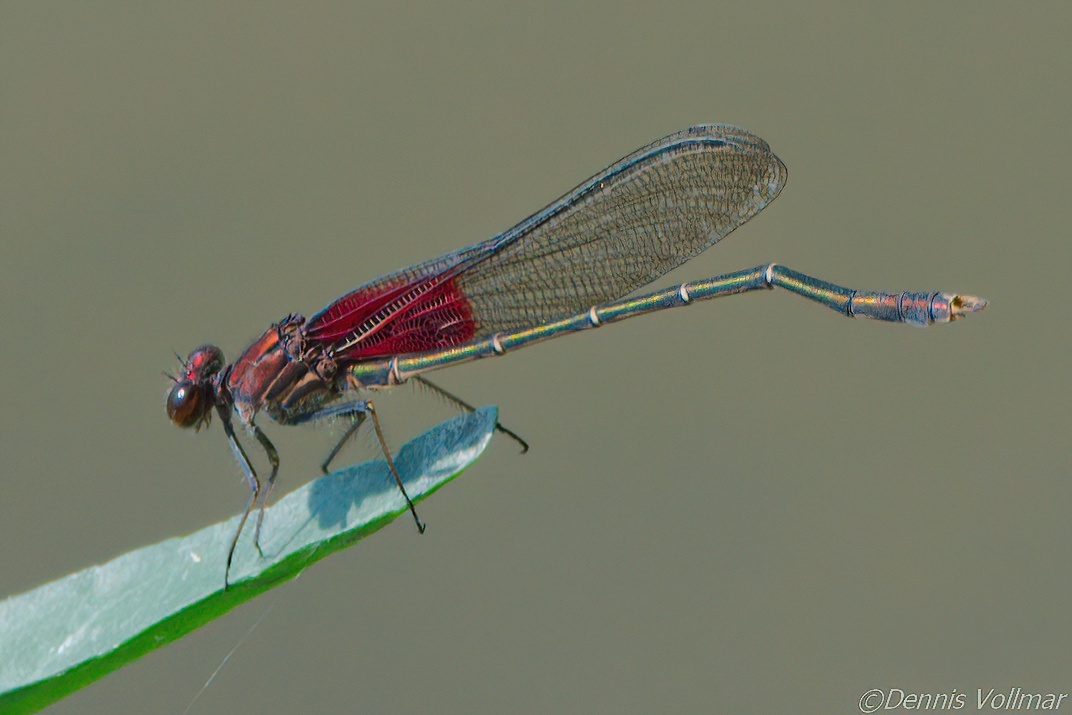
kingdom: Animalia
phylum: Arthropoda
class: Insecta
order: Odonata
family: Calopterygidae
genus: Hetaerina
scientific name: Hetaerina americana
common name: American rubyspot
